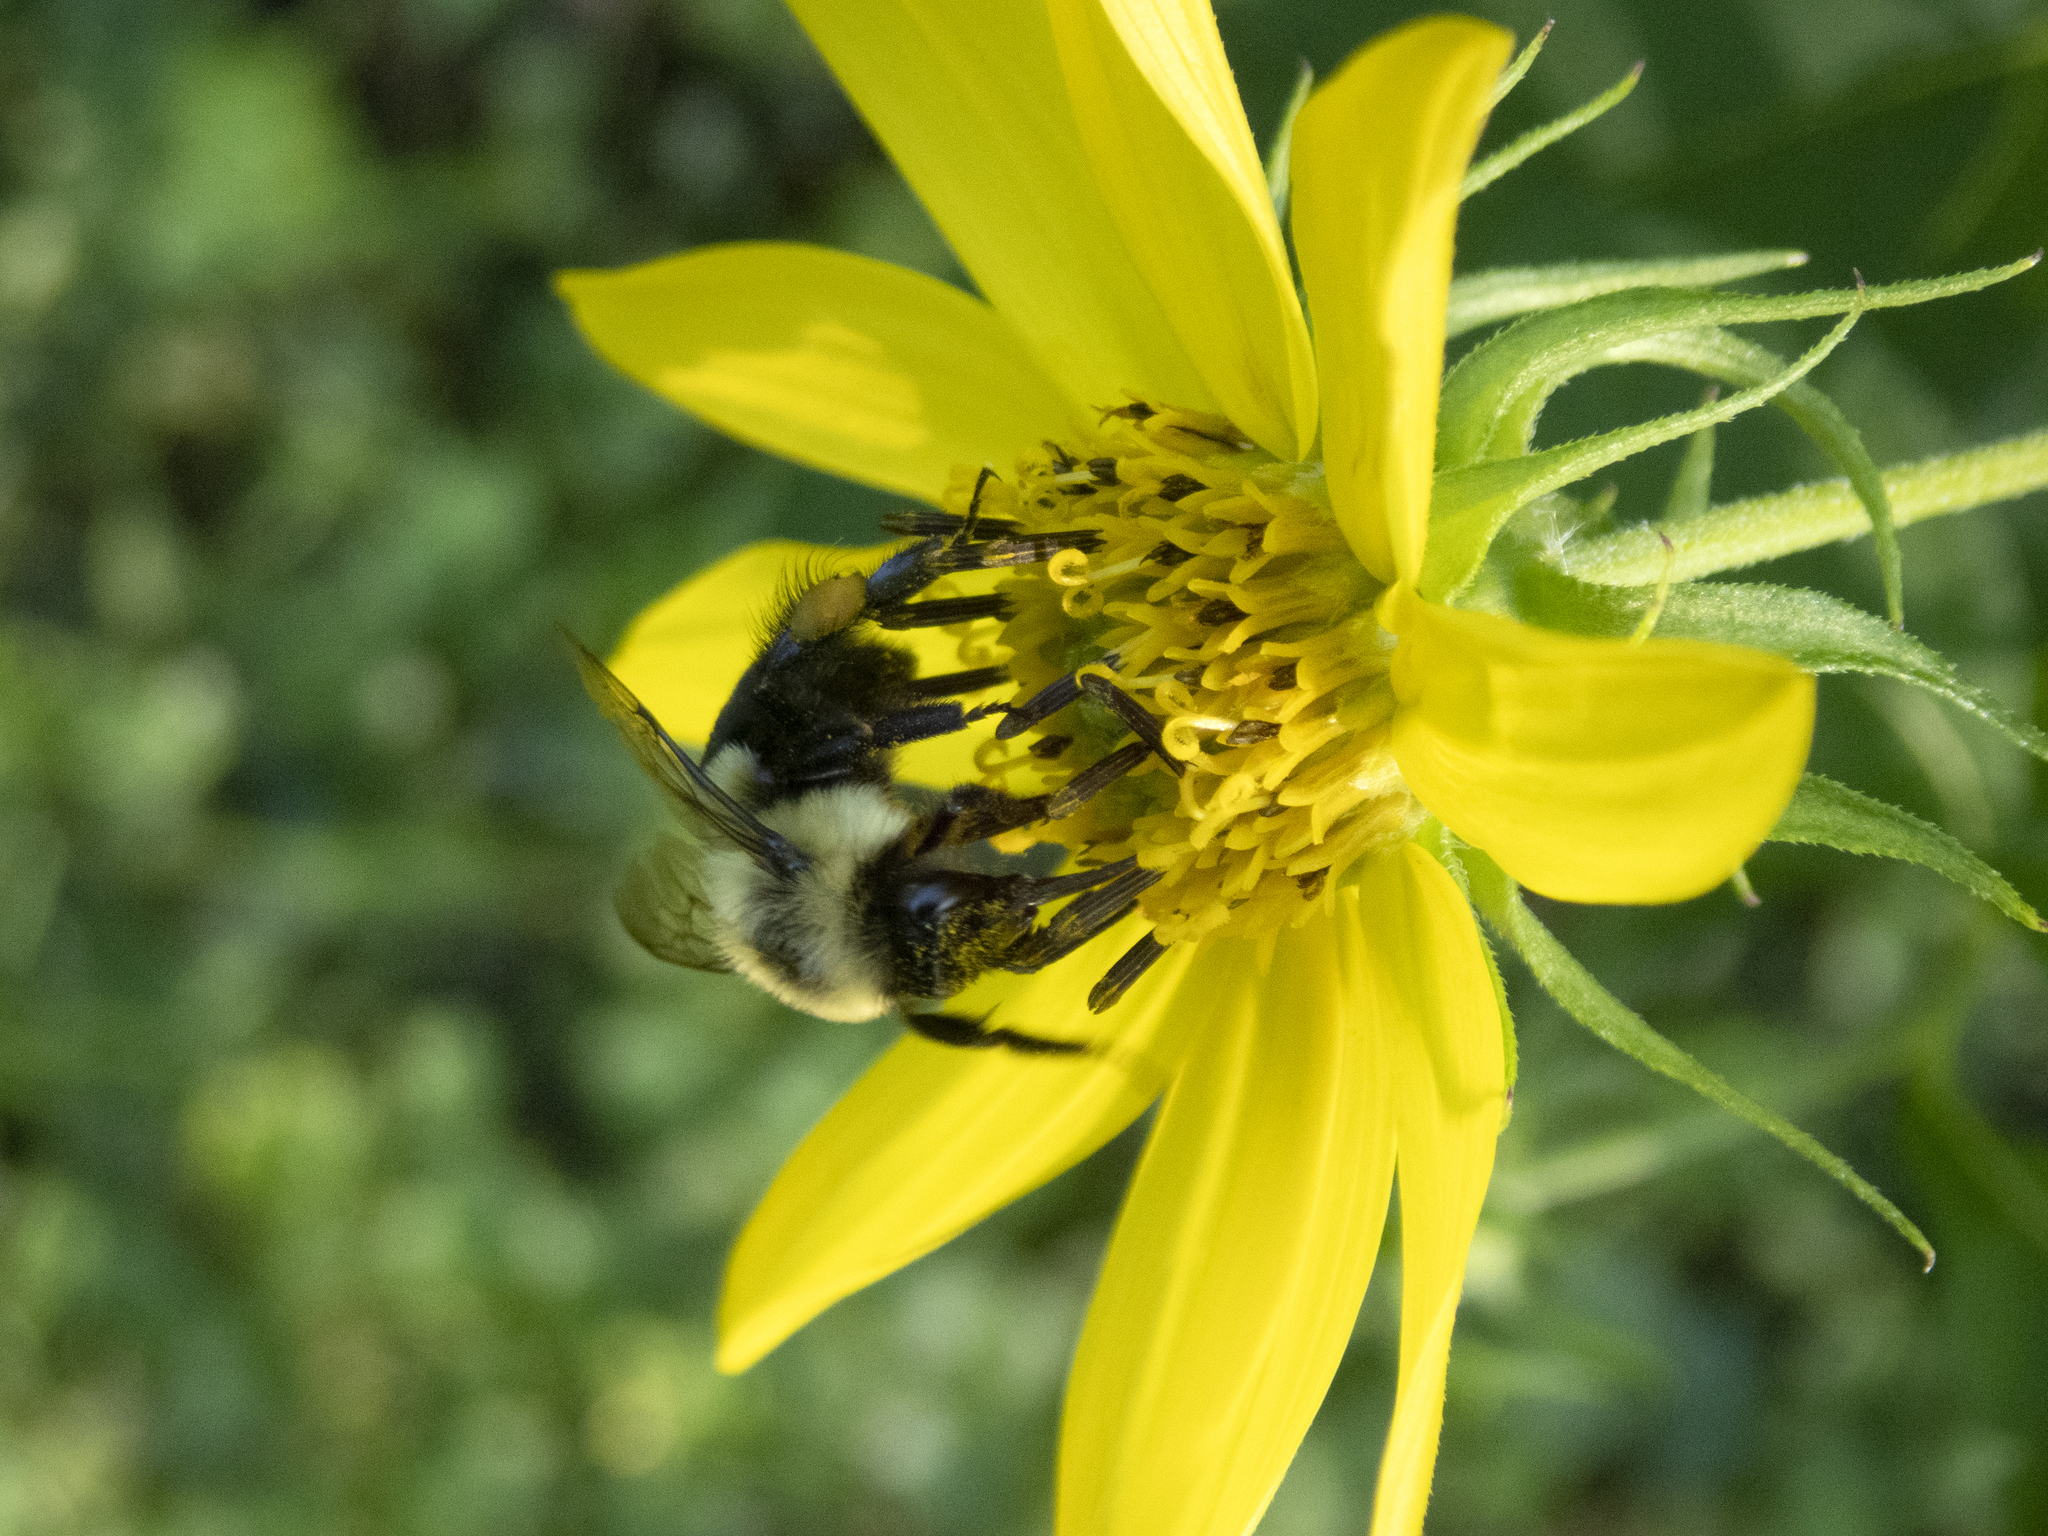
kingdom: Animalia
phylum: Arthropoda
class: Insecta
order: Hymenoptera
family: Apidae
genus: Bombus
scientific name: Bombus impatiens
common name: Common eastern bumble bee
